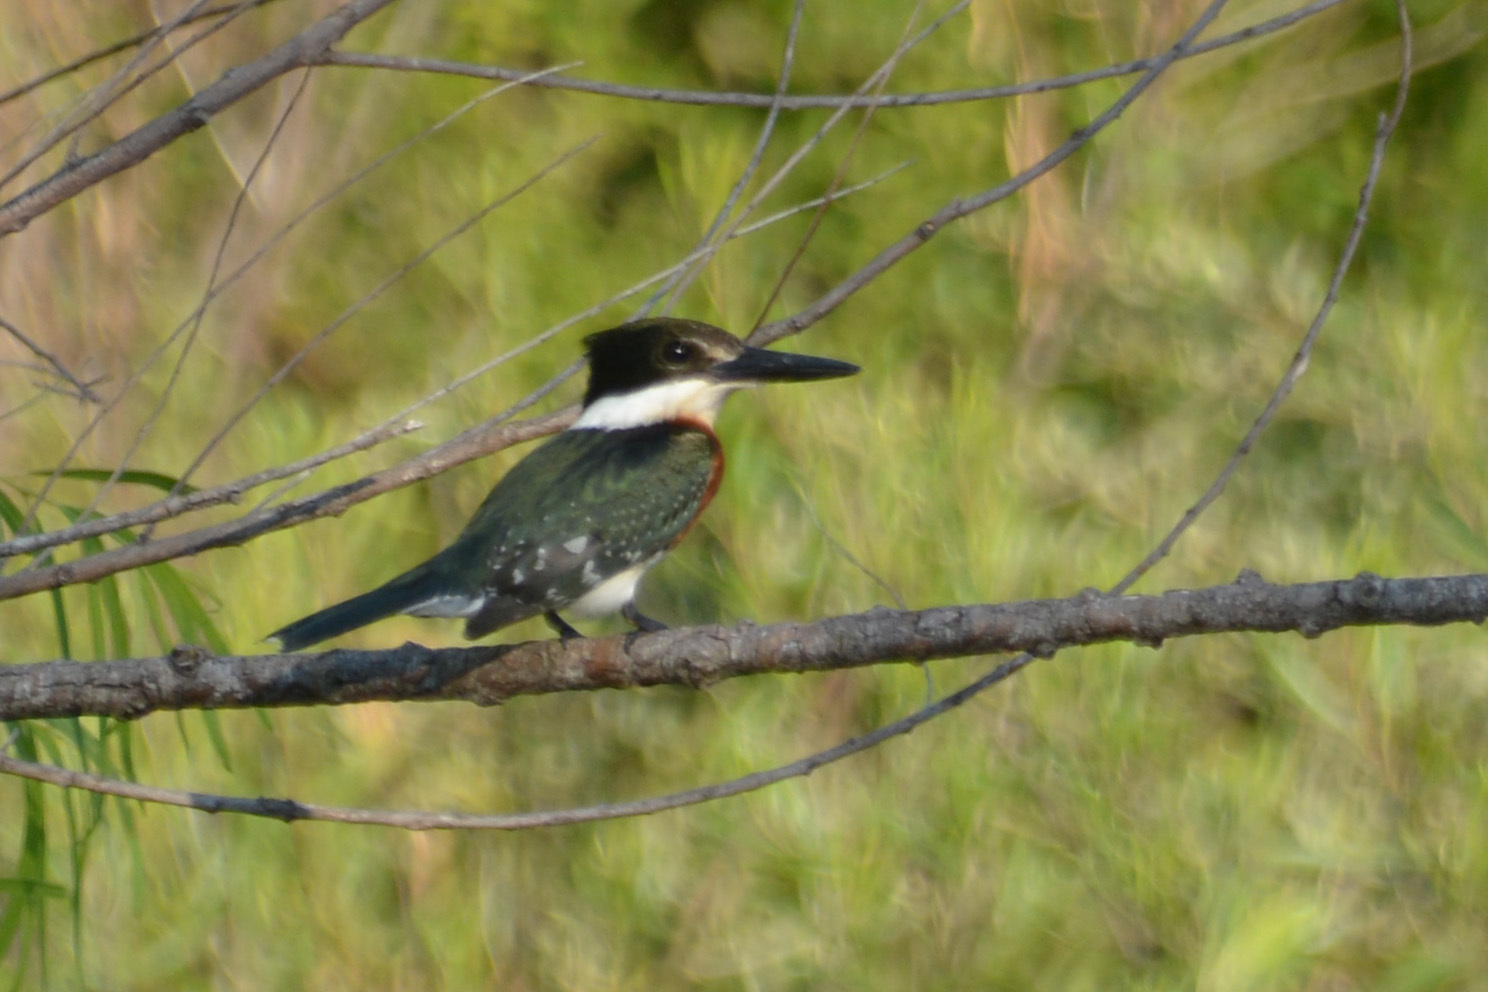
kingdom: Animalia
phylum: Chordata
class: Aves
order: Coraciiformes
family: Alcedinidae
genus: Chloroceryle
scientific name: Chloroceryle americana
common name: Green kingfisher
